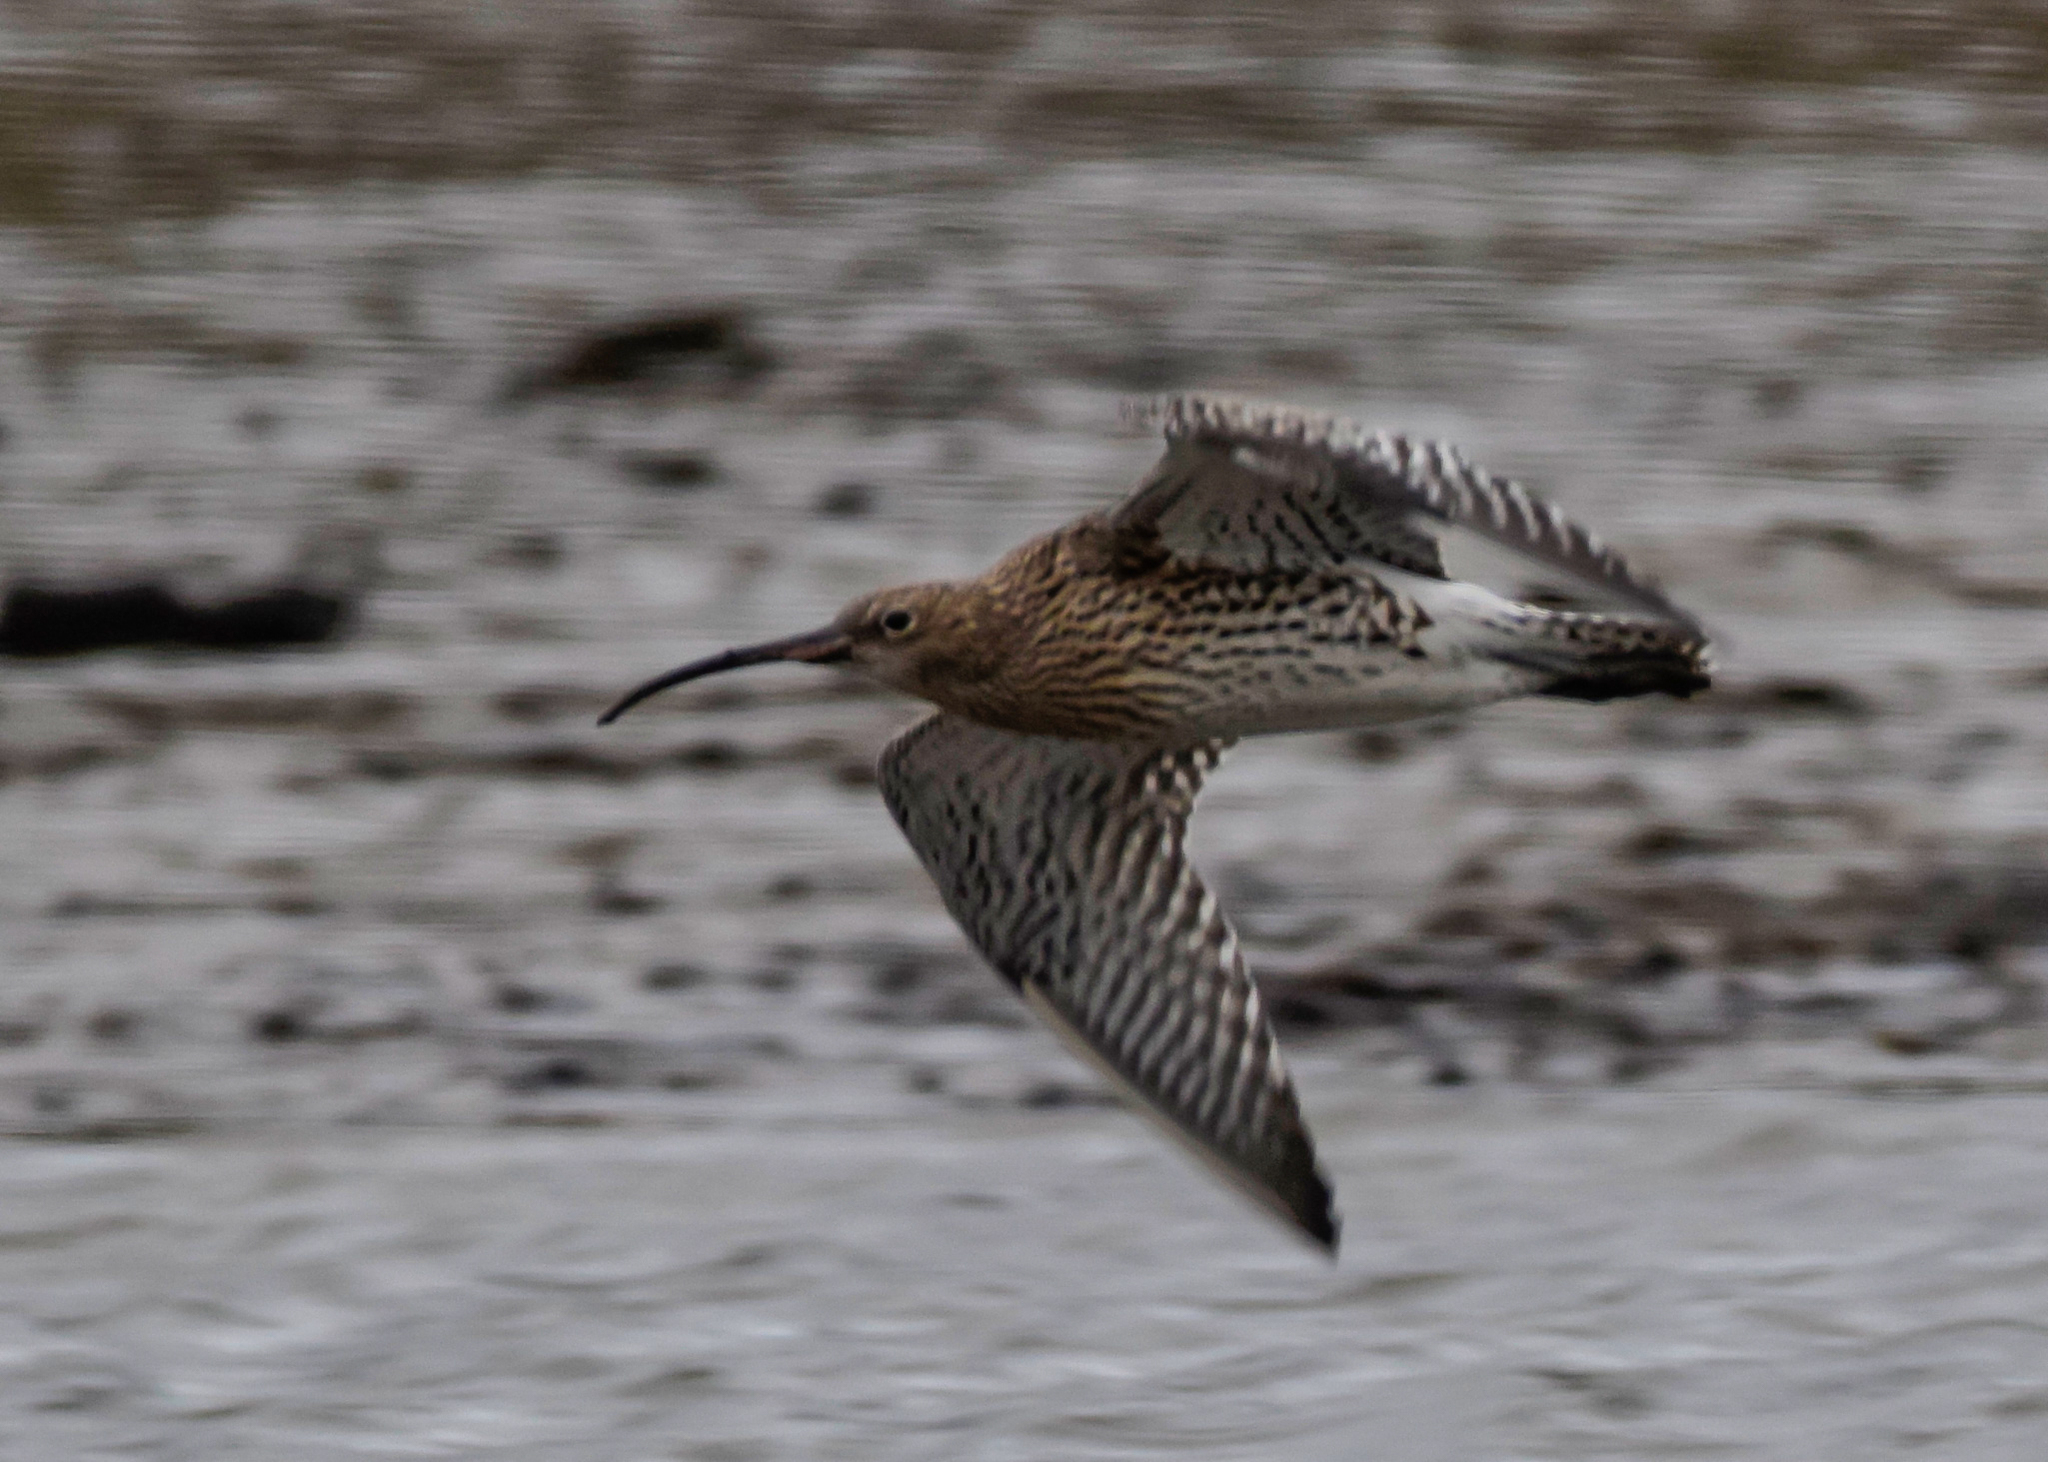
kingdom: Animalia
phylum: Chordata
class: Aves
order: Charadriiformes
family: Scolopacidae
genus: Numenius
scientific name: Numenius arquata
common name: Eurasian curlew
